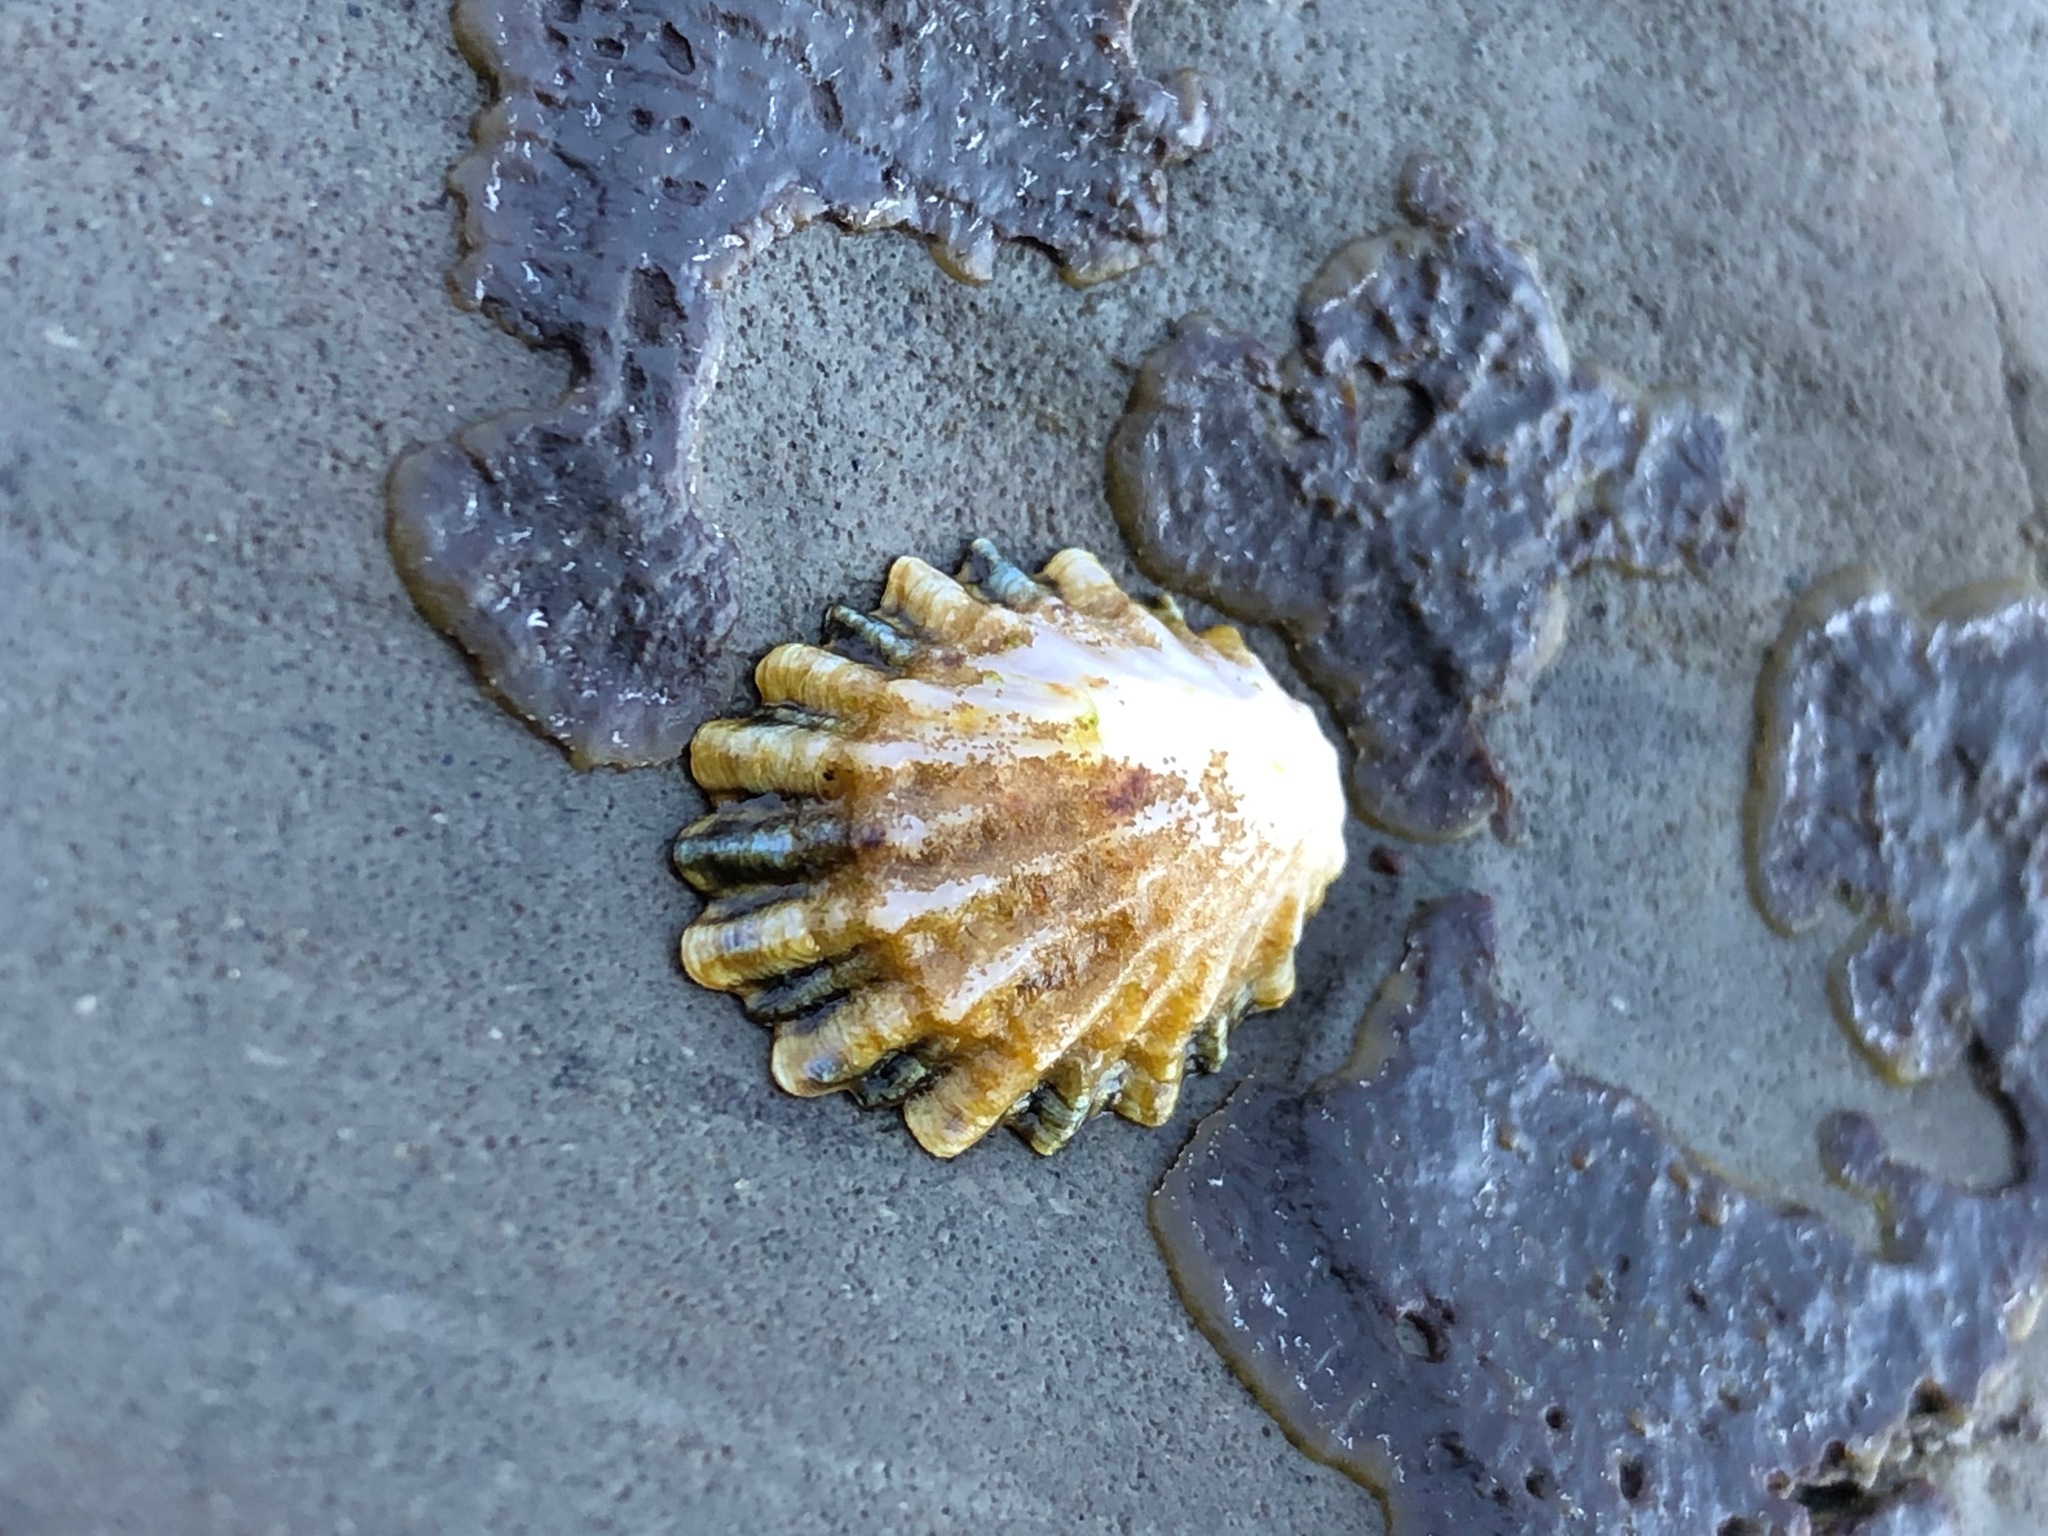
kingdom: Animalia
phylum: Mollusca
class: Gastropoda
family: Lottiidae
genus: Lottia
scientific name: Lottia scabra
